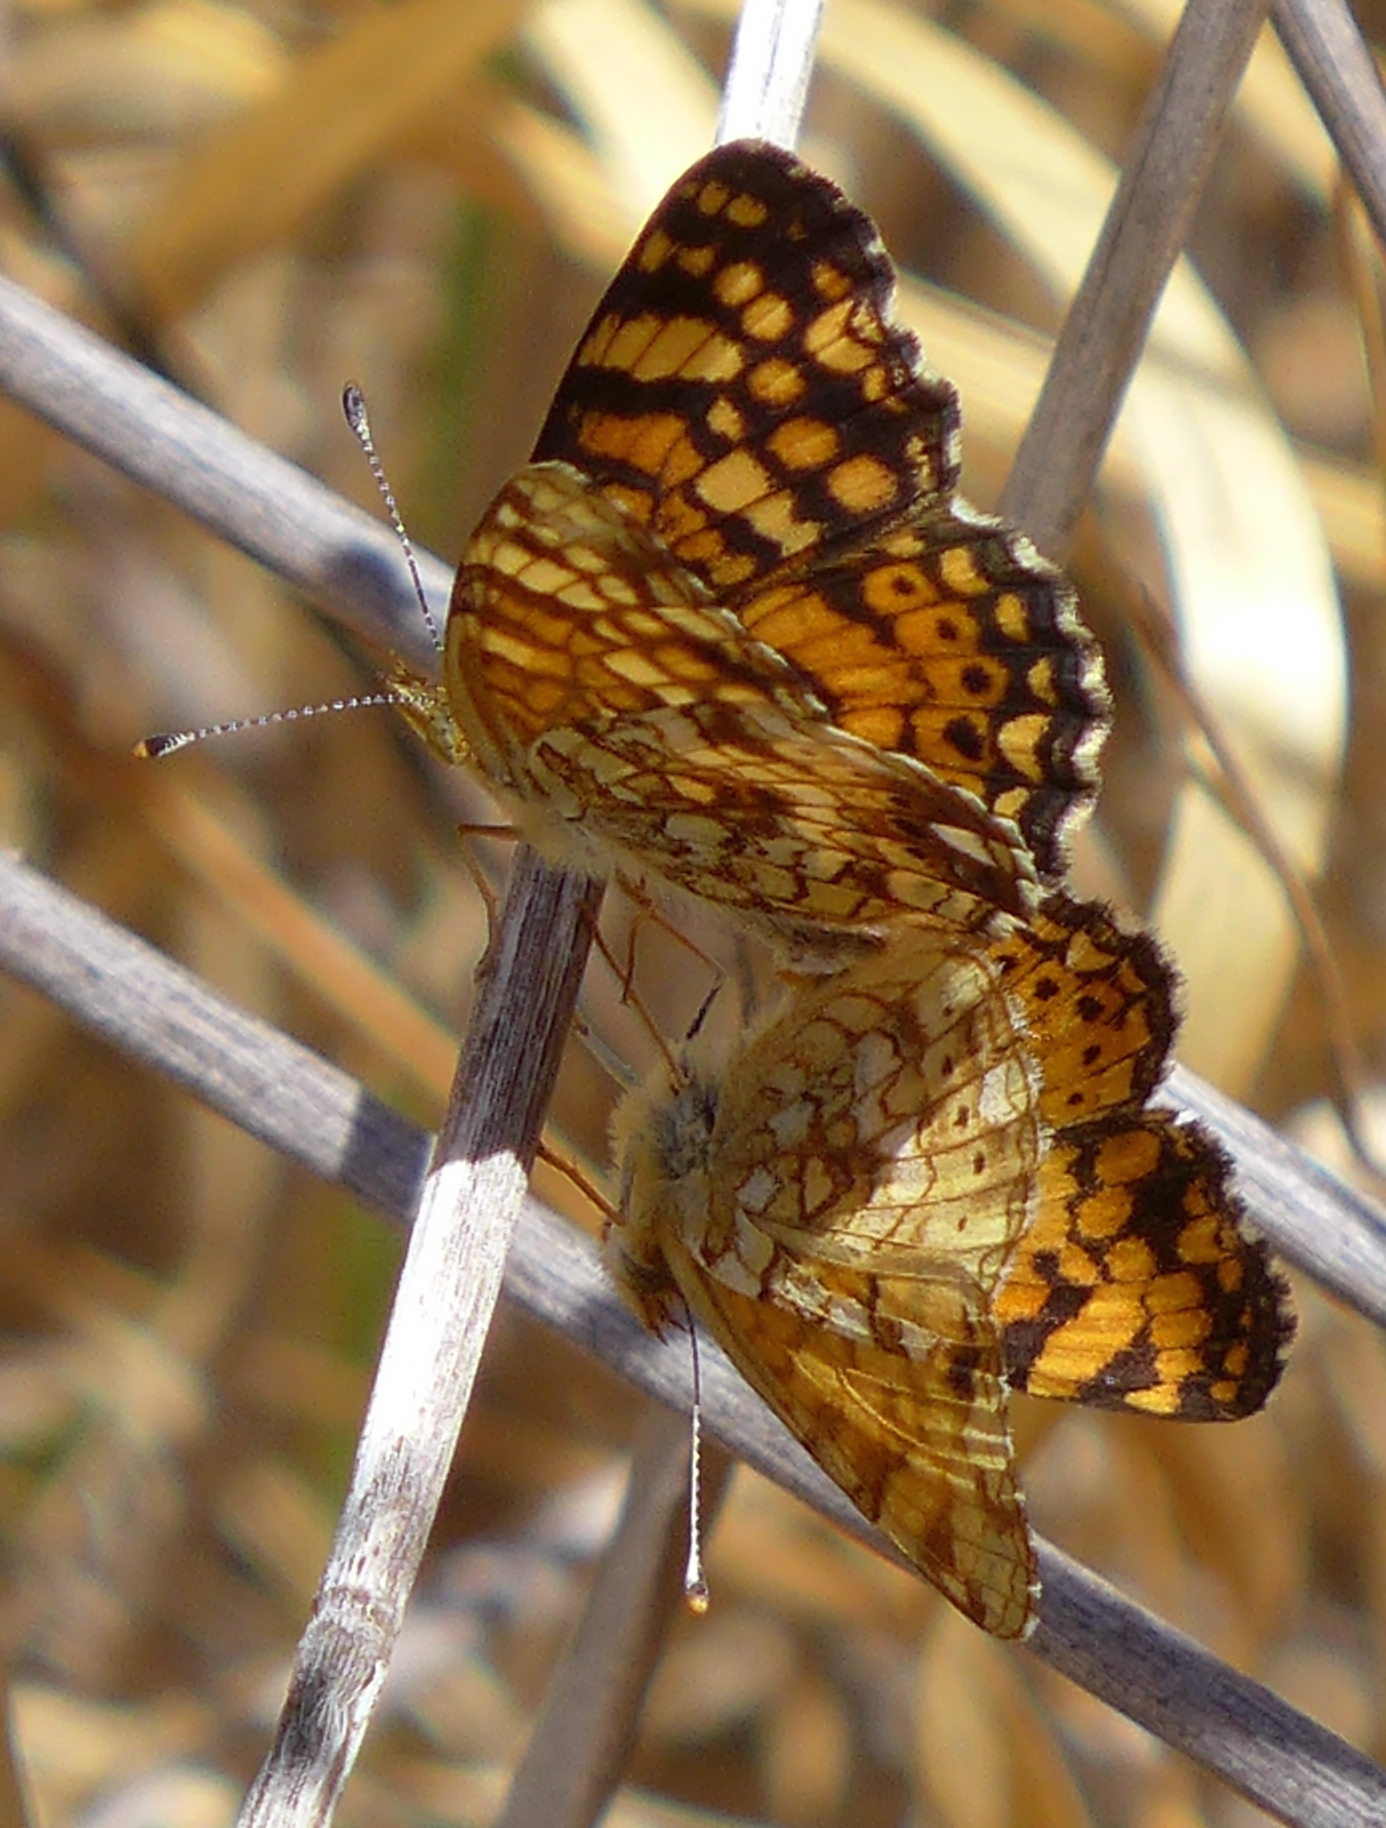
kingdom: Animalia
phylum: Arthropoda
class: Insecta
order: Lepidoptera
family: Nymphalidae
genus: Eresia
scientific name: Eresia aveyrona
